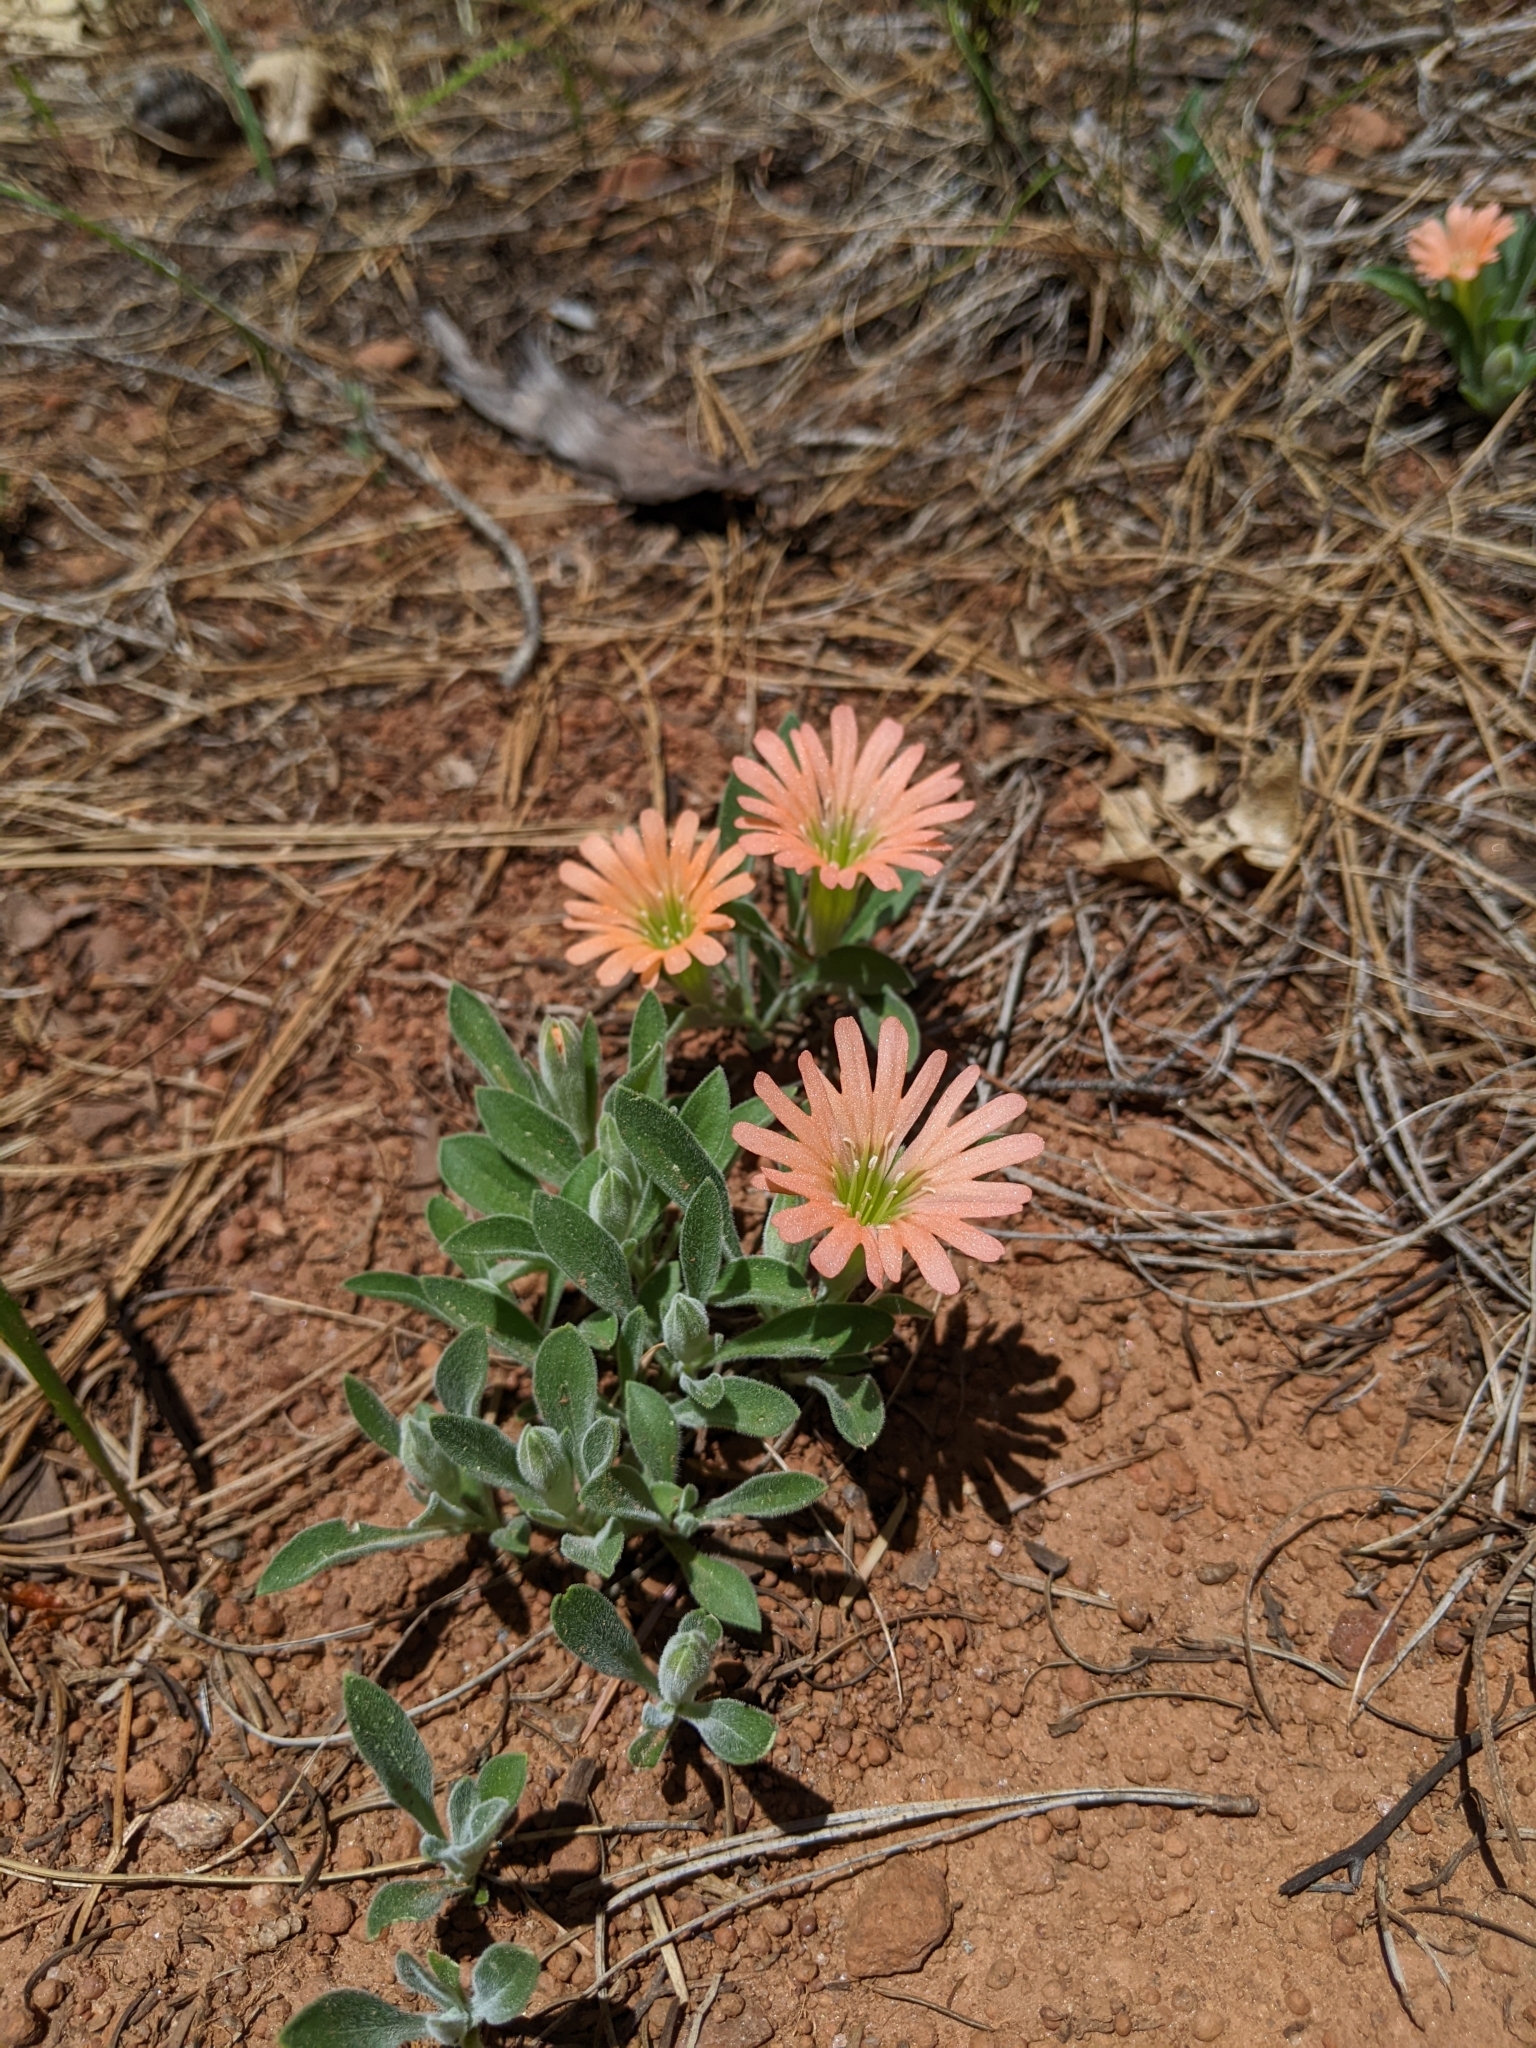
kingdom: Plantae
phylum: Tracheophyta
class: Magnoliopsida
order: Caryophyllales
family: Caryophyllaceae
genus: Silene
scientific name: Silene salmonacea
